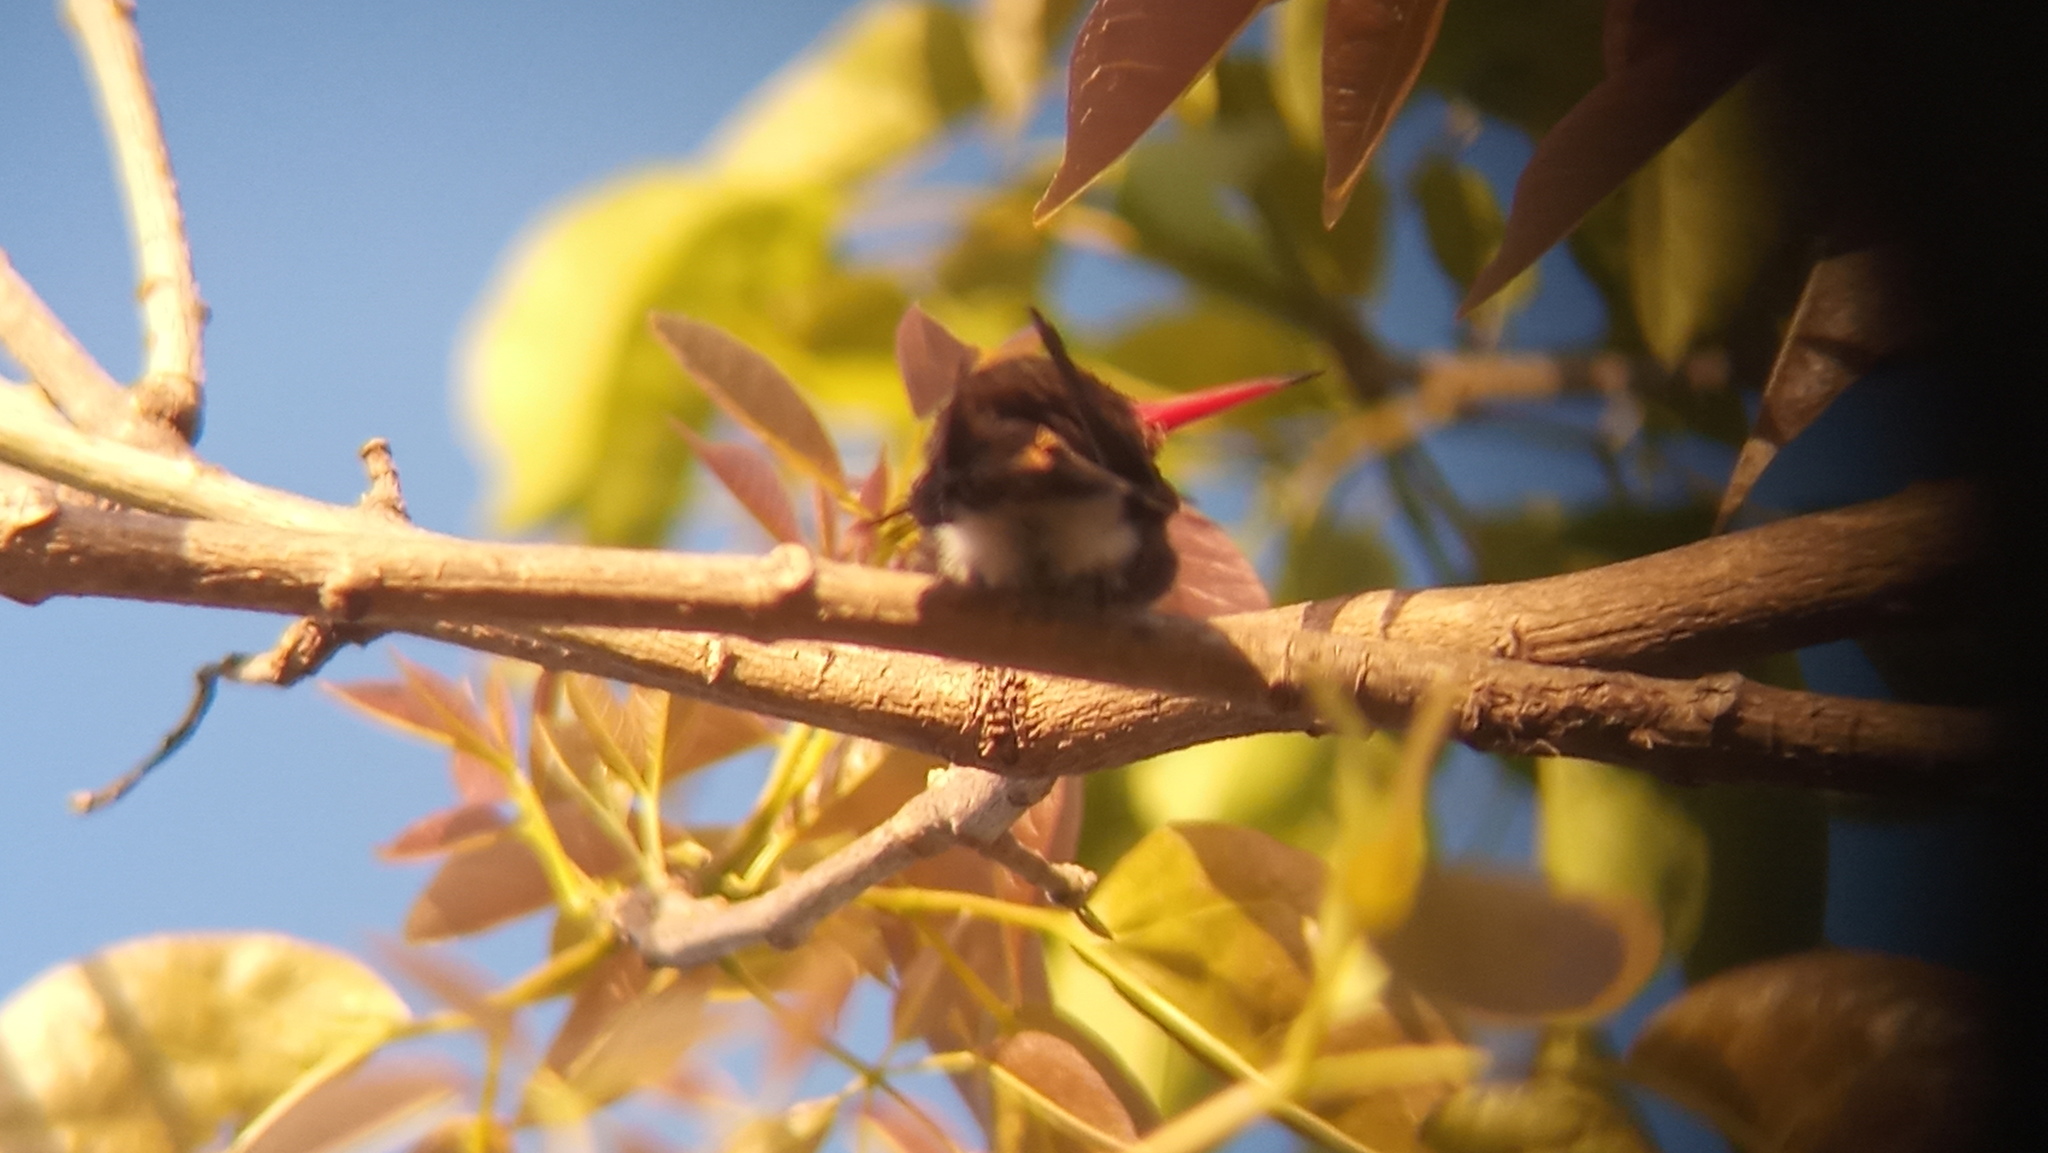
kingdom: Animalia
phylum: Chordata
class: Aves
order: Apodiformes
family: Trochilidae
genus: Hylocharis
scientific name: Hylocharis chrysura
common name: Gilded sapphire
